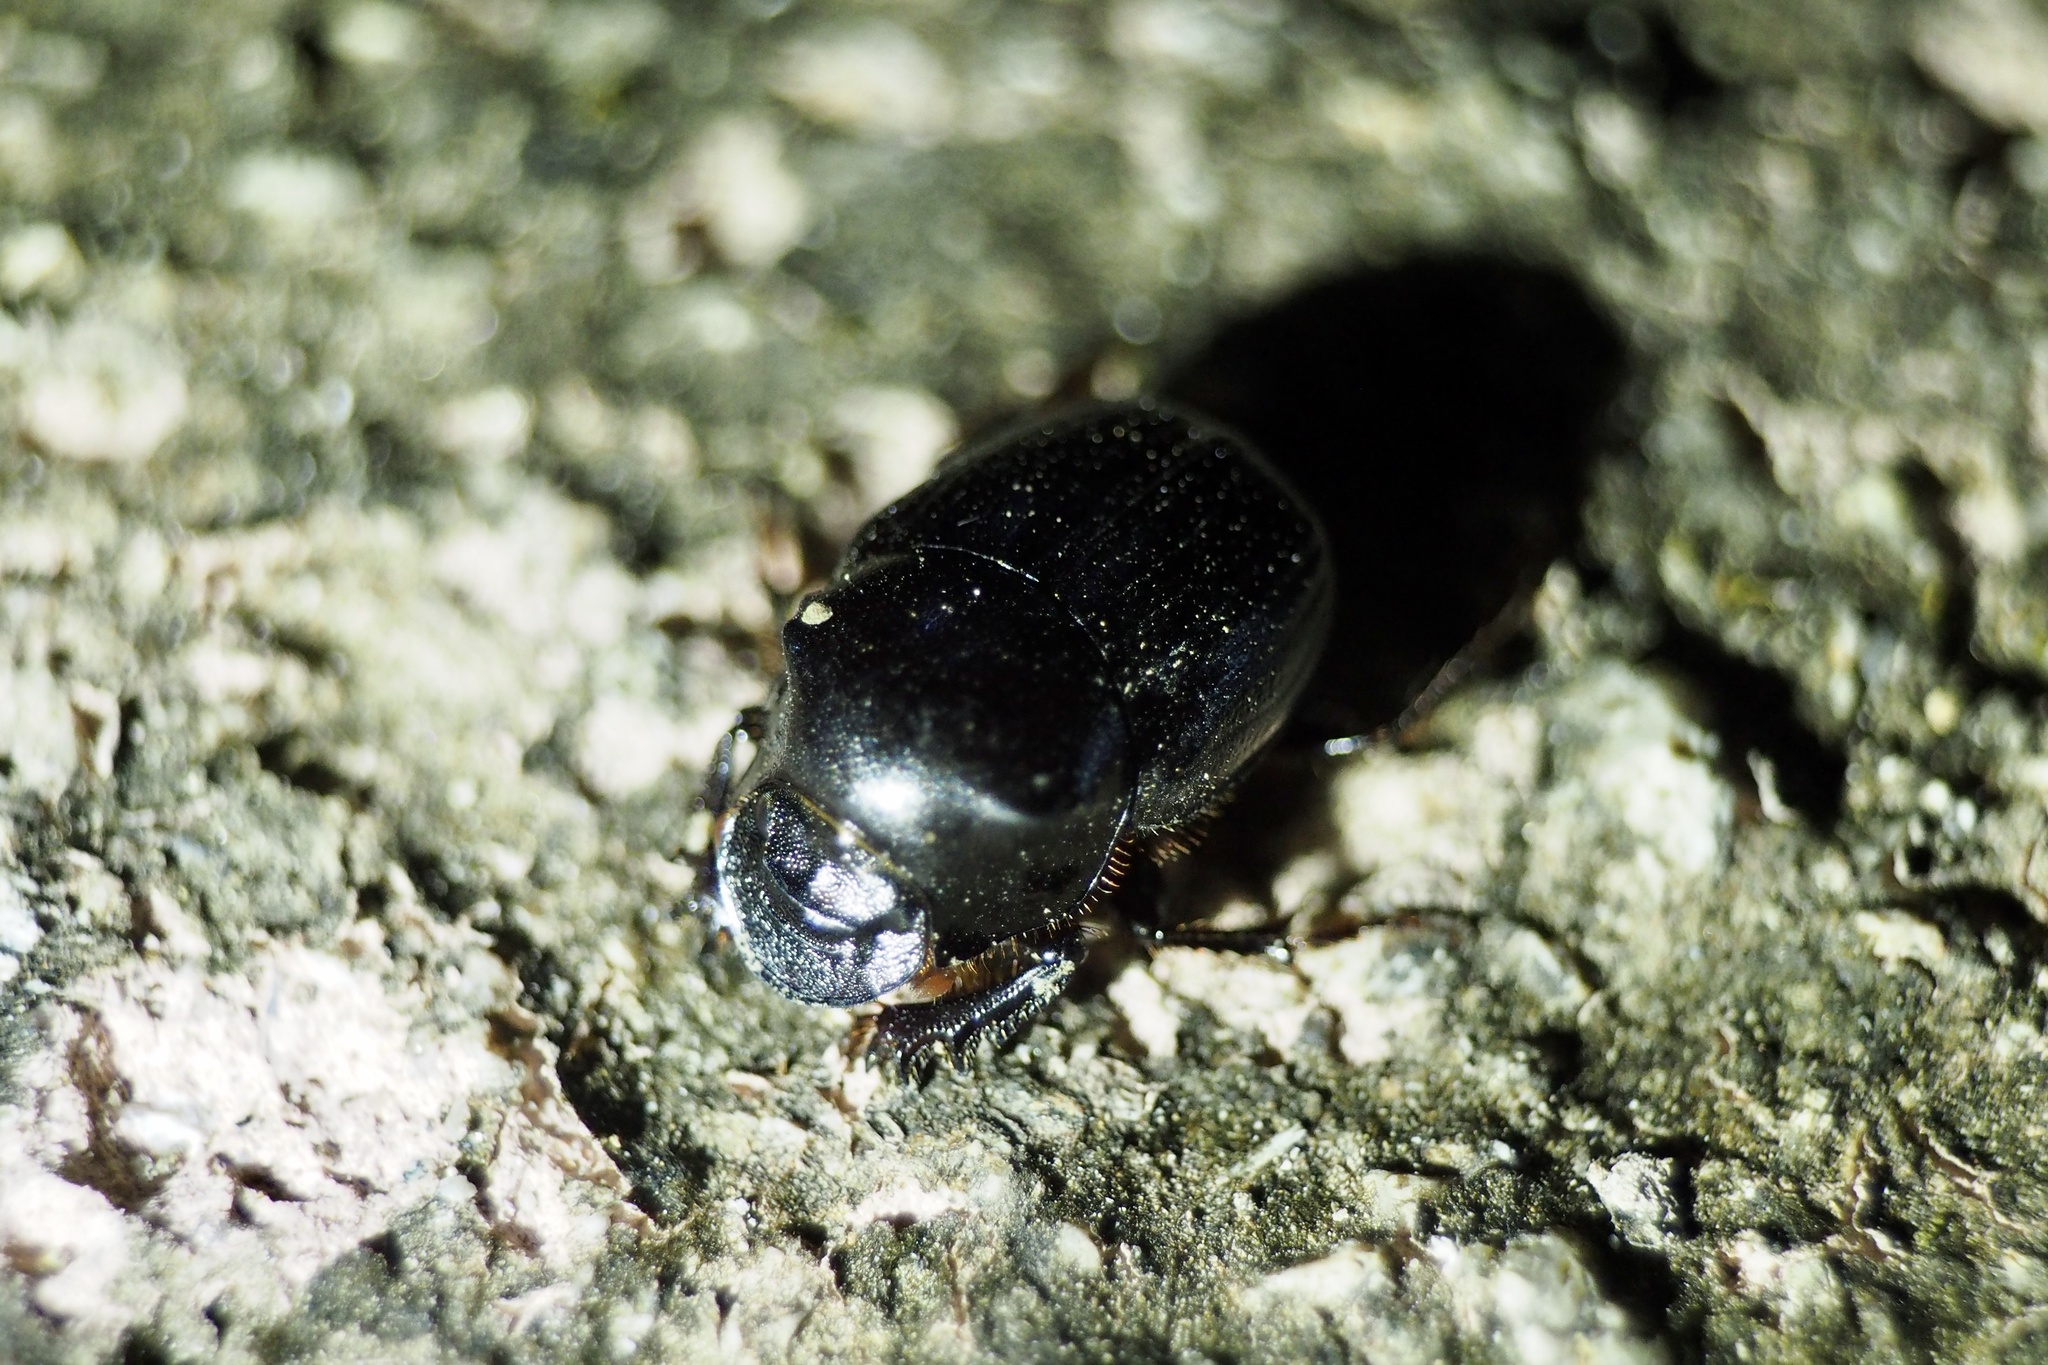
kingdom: Animalia
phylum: Arthropoda
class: Insecta
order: Coleoptera
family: Scarabaeidae
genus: Onthophagus
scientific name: Onthophagus lenzii
